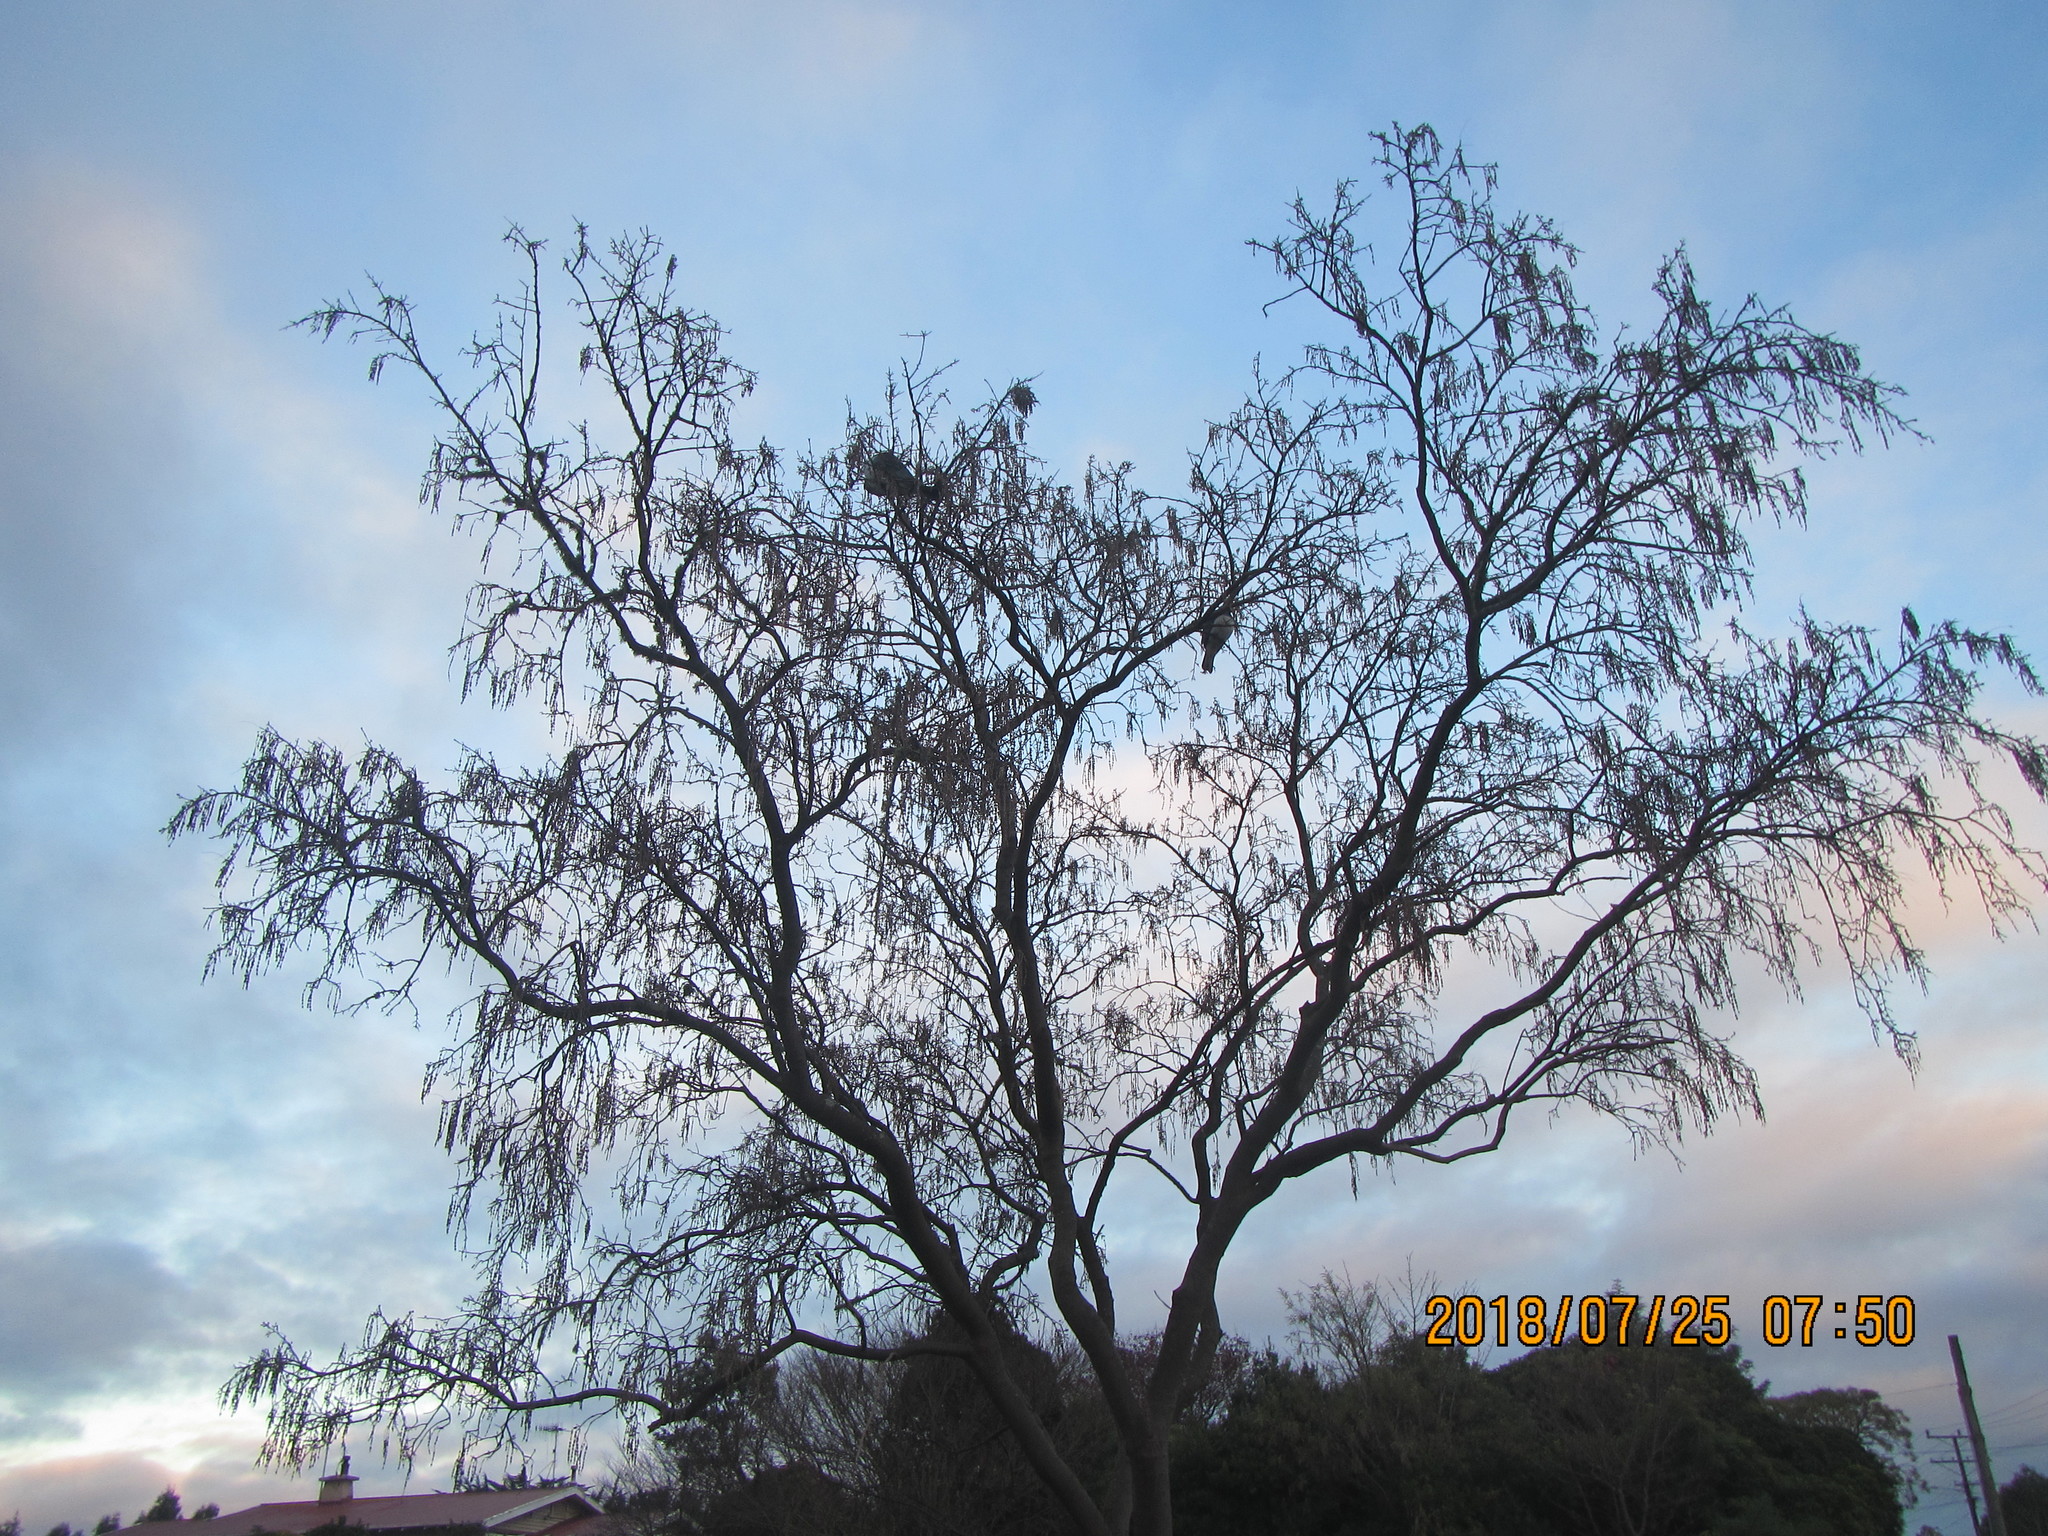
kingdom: Animalia
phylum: Chordata
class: Aves
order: Columbiformes
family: Columbidae
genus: Hemiphaga
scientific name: Hemiphaga novaeseelandiae
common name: New zealand pigeon
